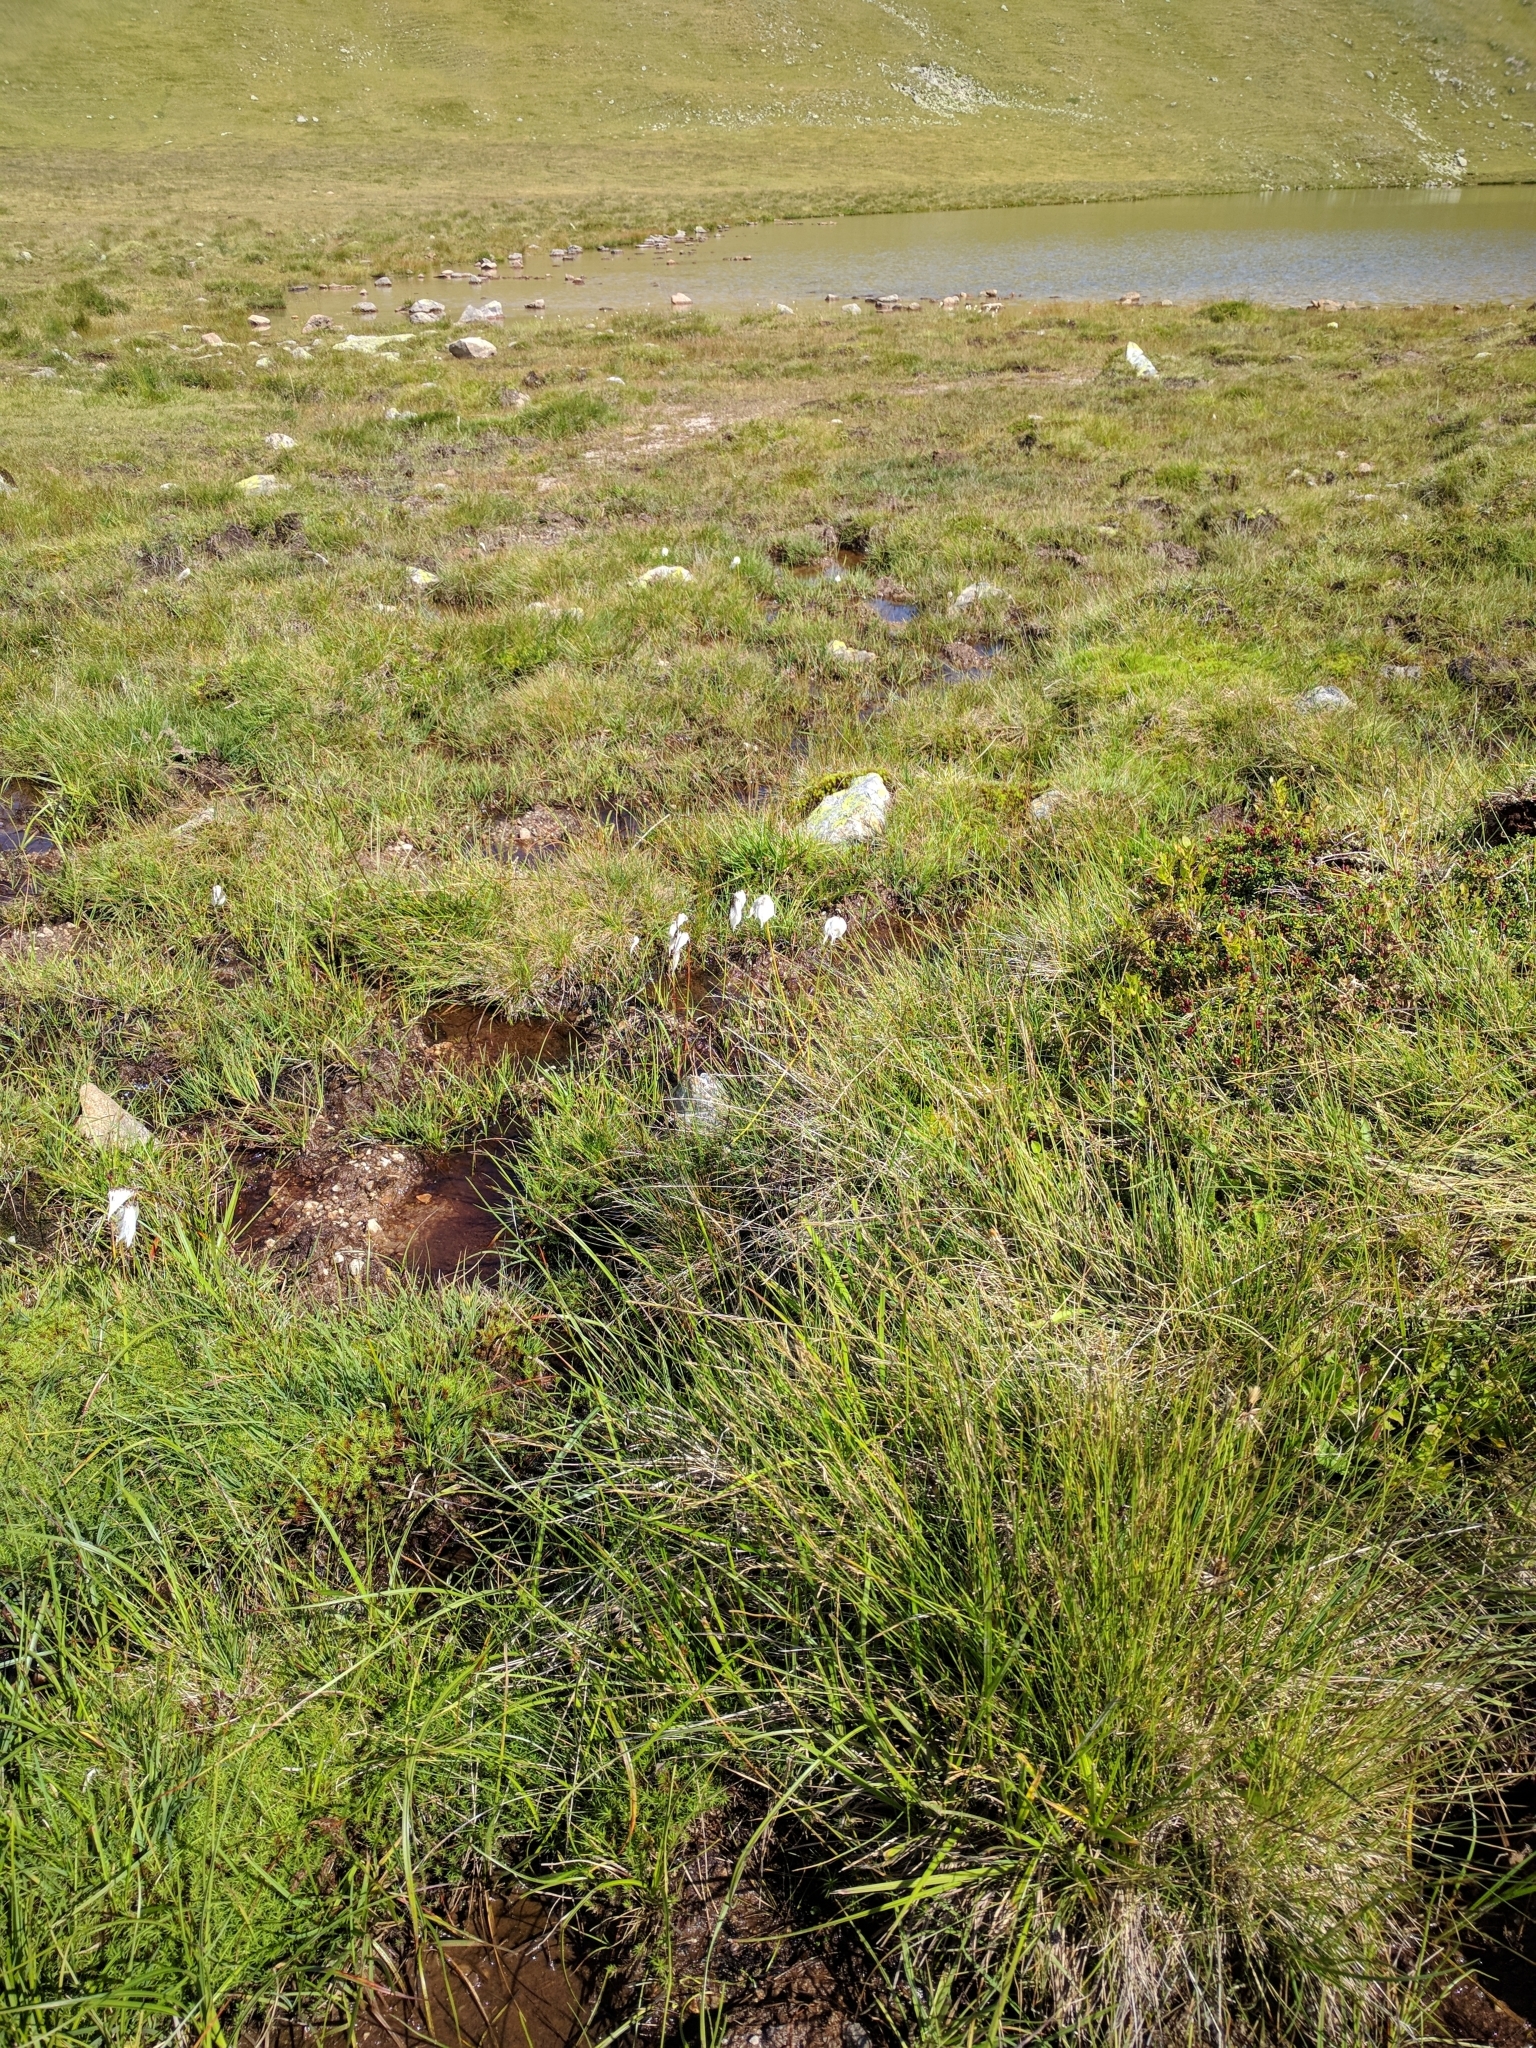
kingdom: Plantae
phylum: Tracheophyta
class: Liliopsida
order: Poales
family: Cyperaceae
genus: Eriophorum
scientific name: Eriophorum
